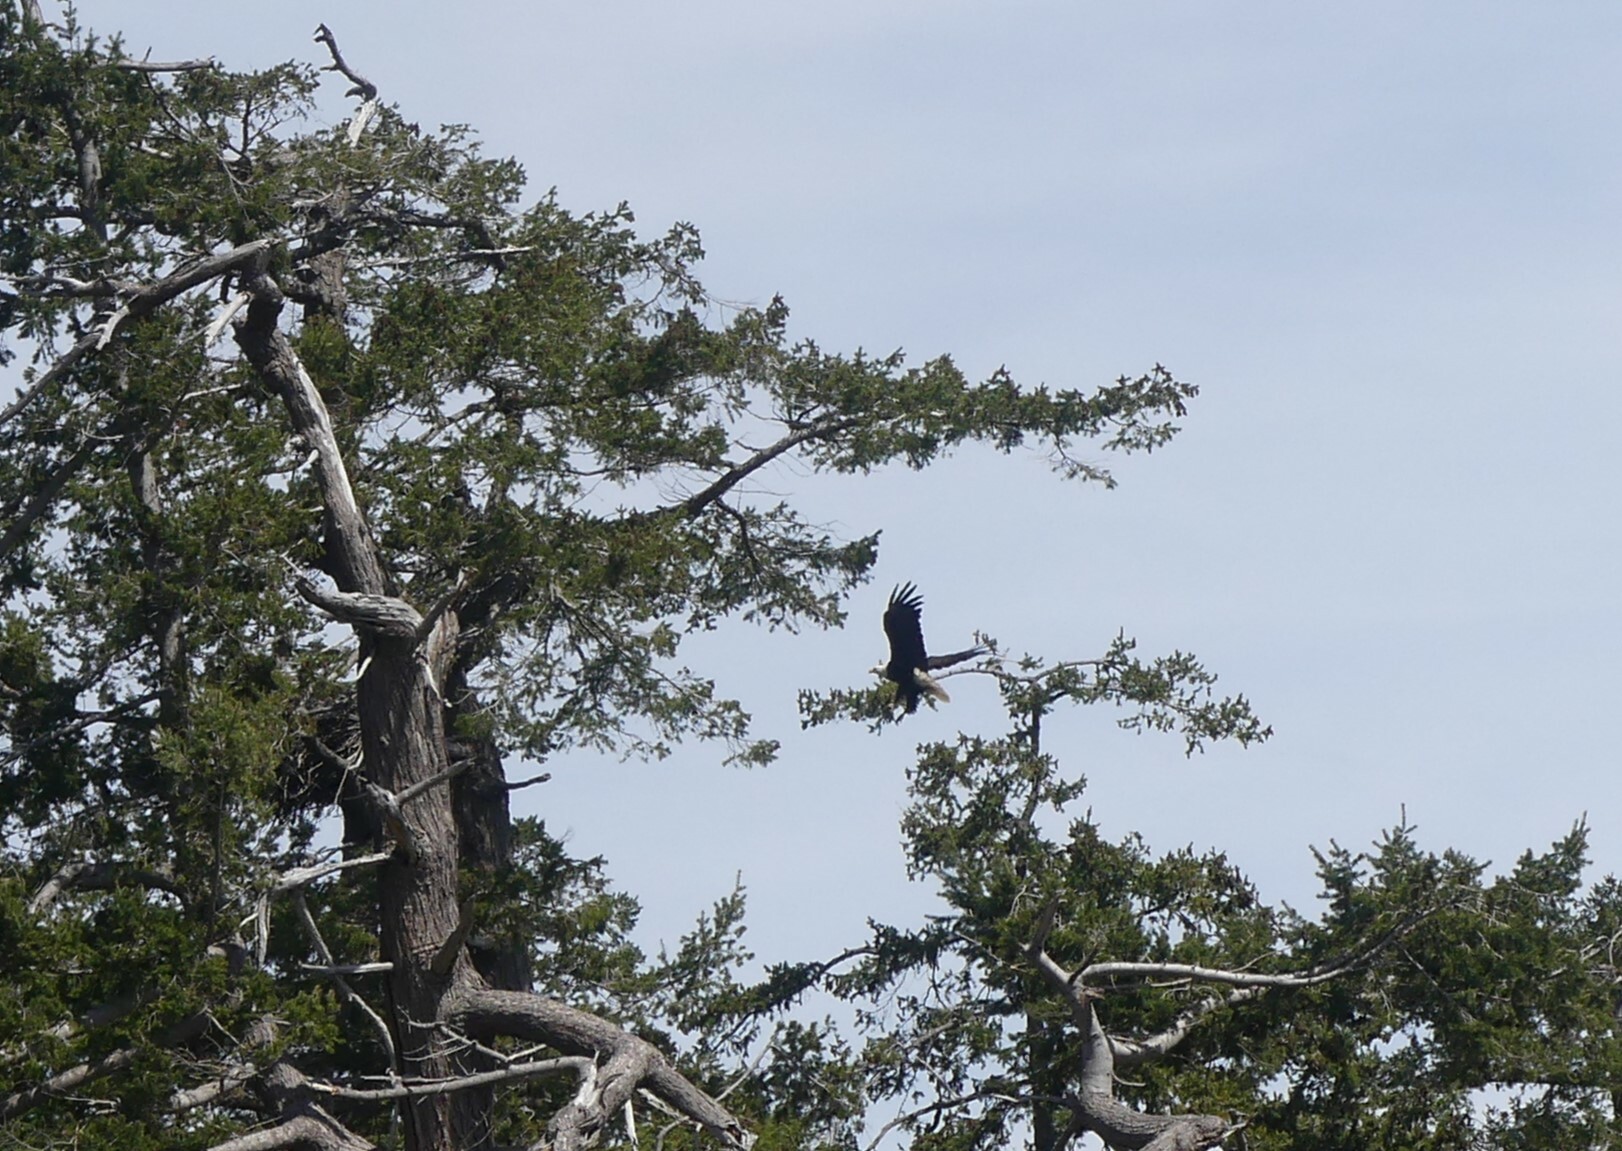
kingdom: Animalia
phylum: Chordata
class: Aves
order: Accipitriformes
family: Accipitridae
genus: Haliaeetus
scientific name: Haliaeetus leucocephalus
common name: Bald eagle
